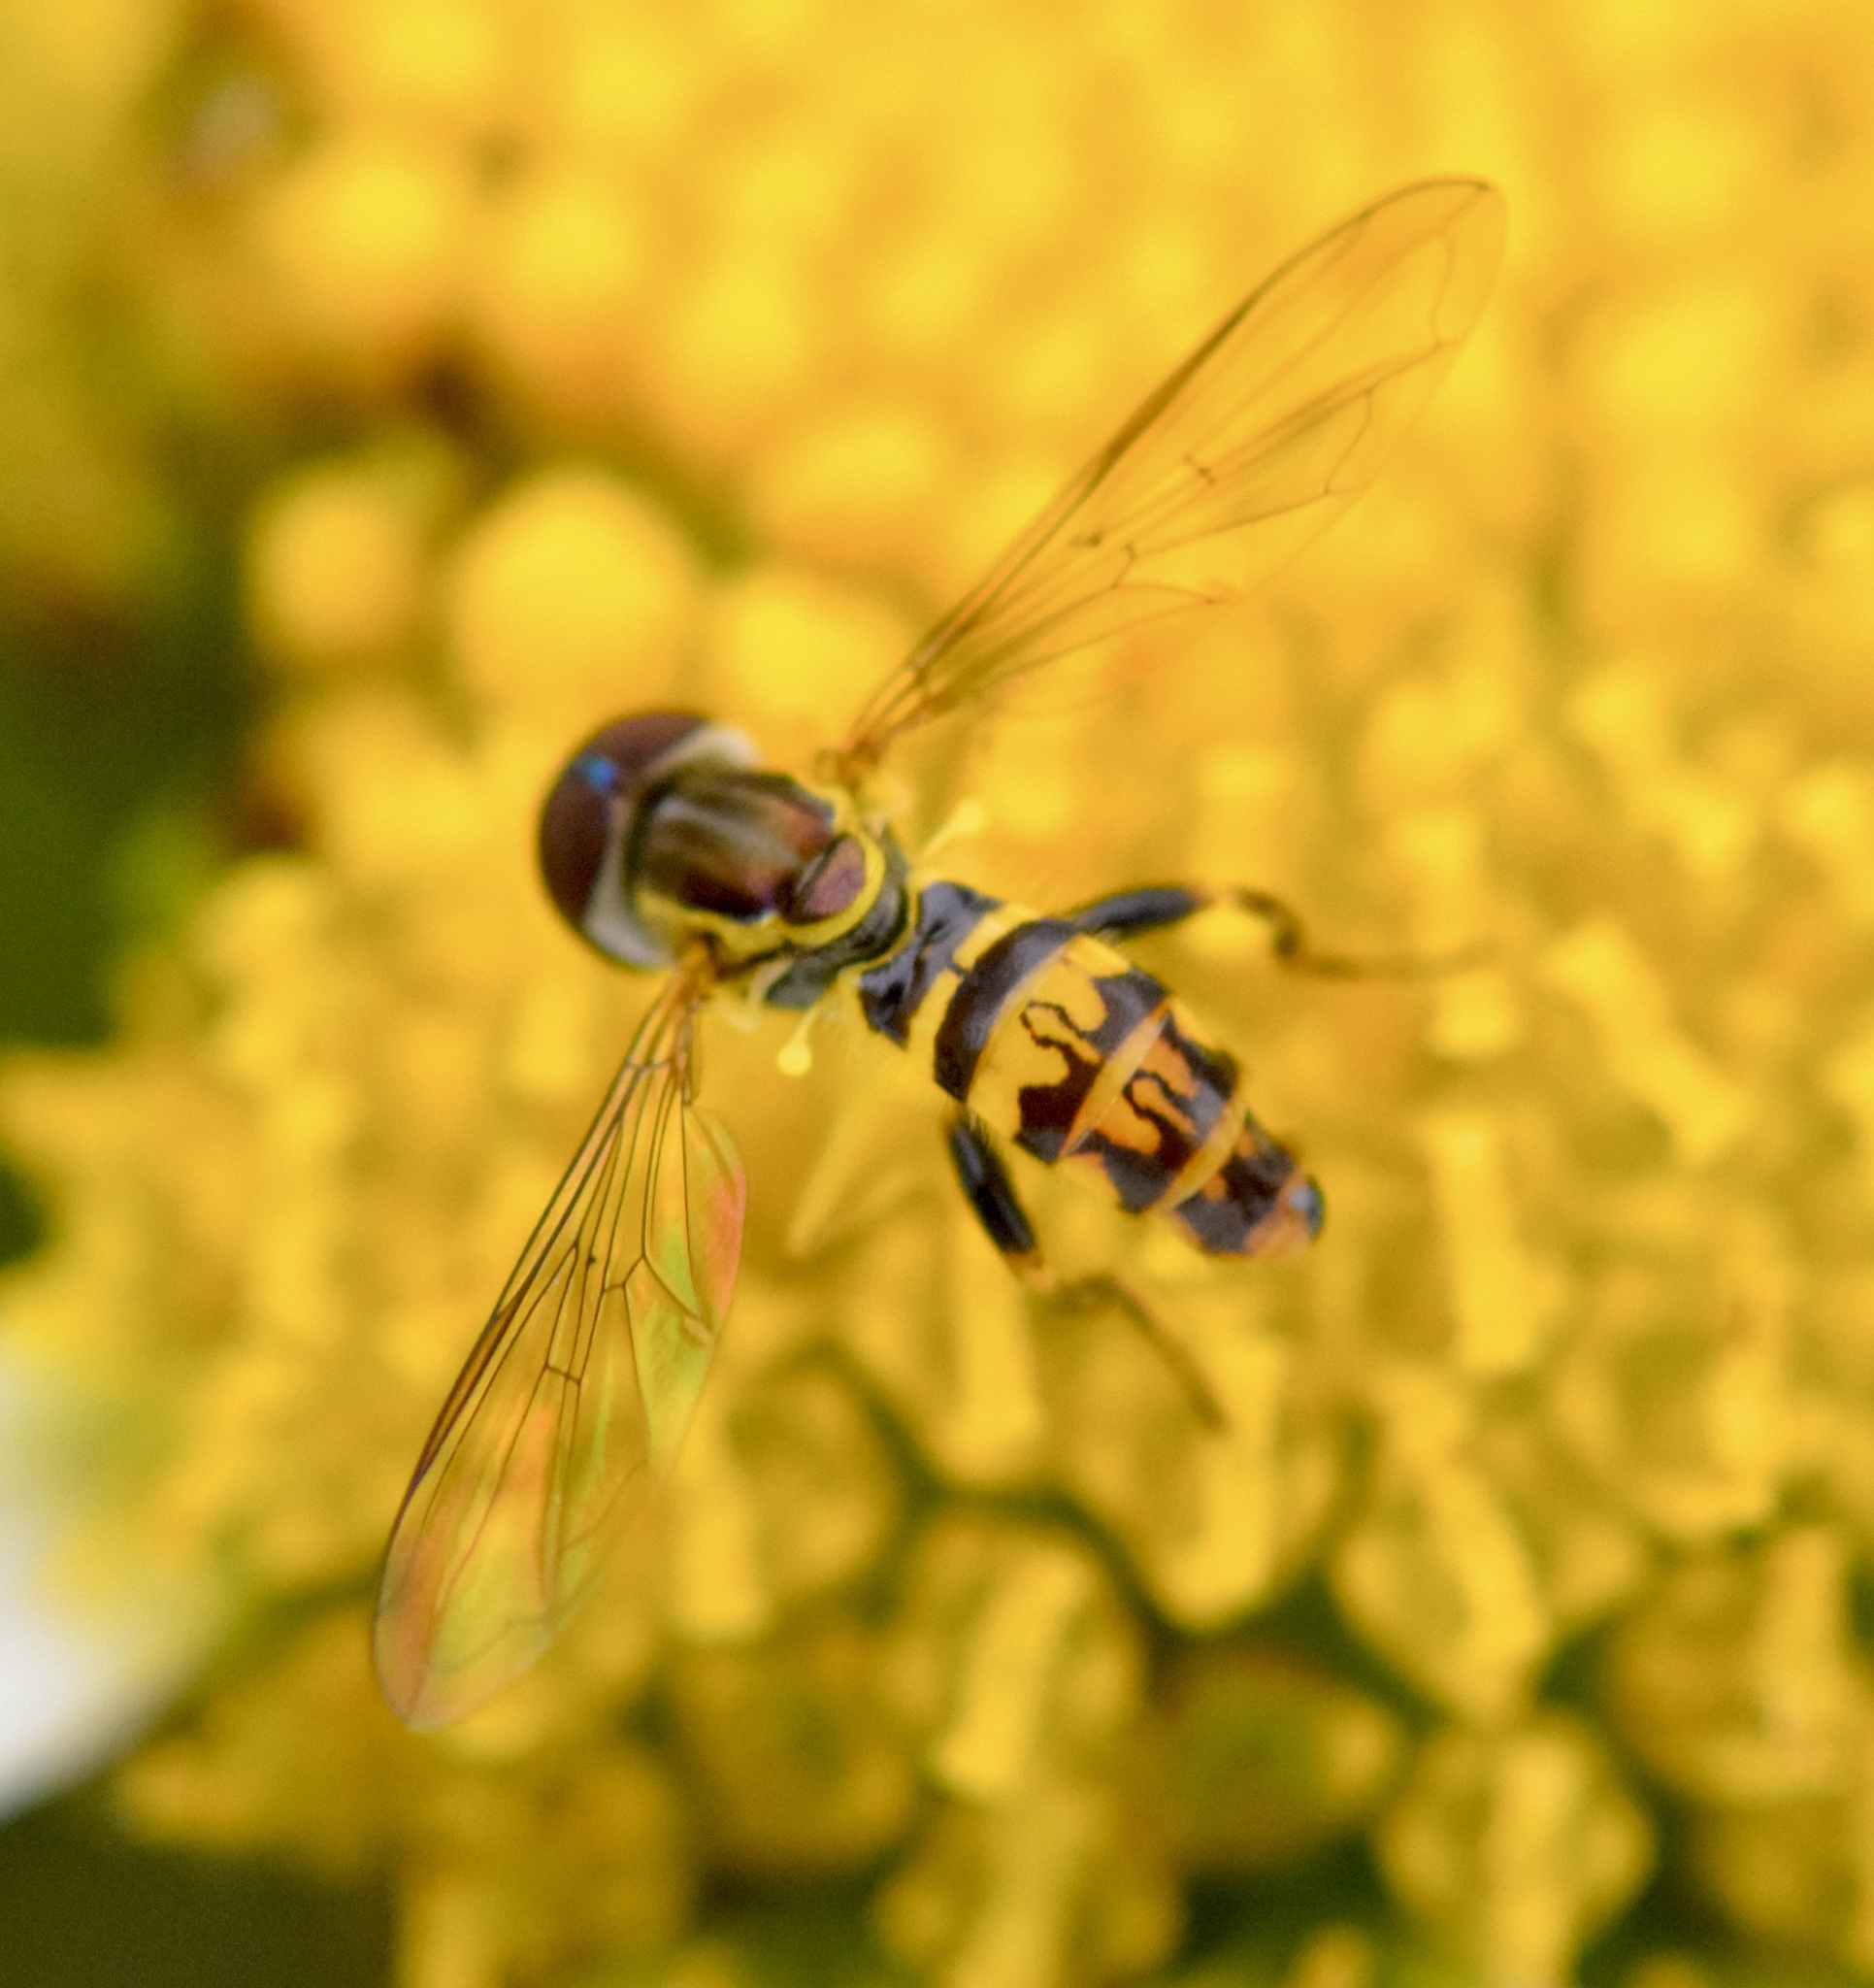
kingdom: Animalia
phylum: Arthropoda
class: Insecta
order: Diptera
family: Syrphidae
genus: Toxomerus
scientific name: Toxomerus geminatus
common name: Eastern calligrapher
